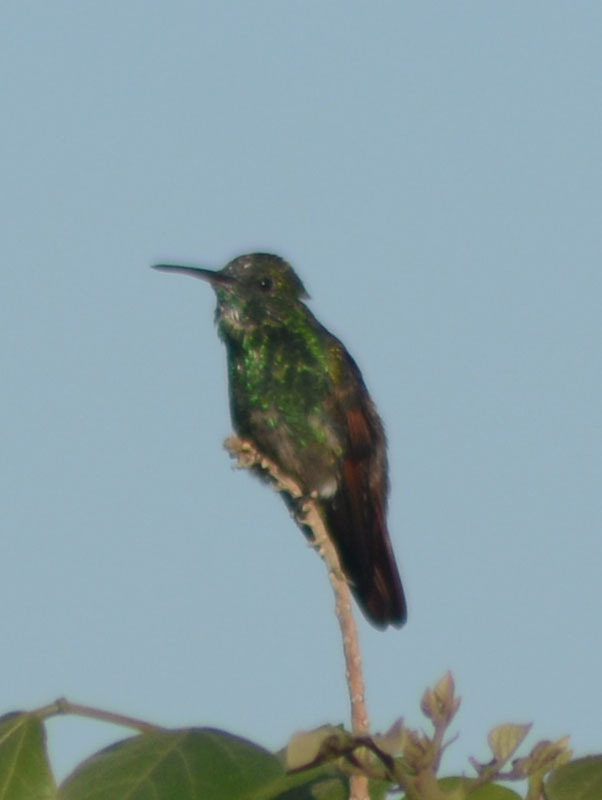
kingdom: Animalia
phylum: Chordata
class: Aves
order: Apodiformes
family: Trochilidae
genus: Saucerottia
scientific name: Saucerottia beryllina
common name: Berylline hummingbird
